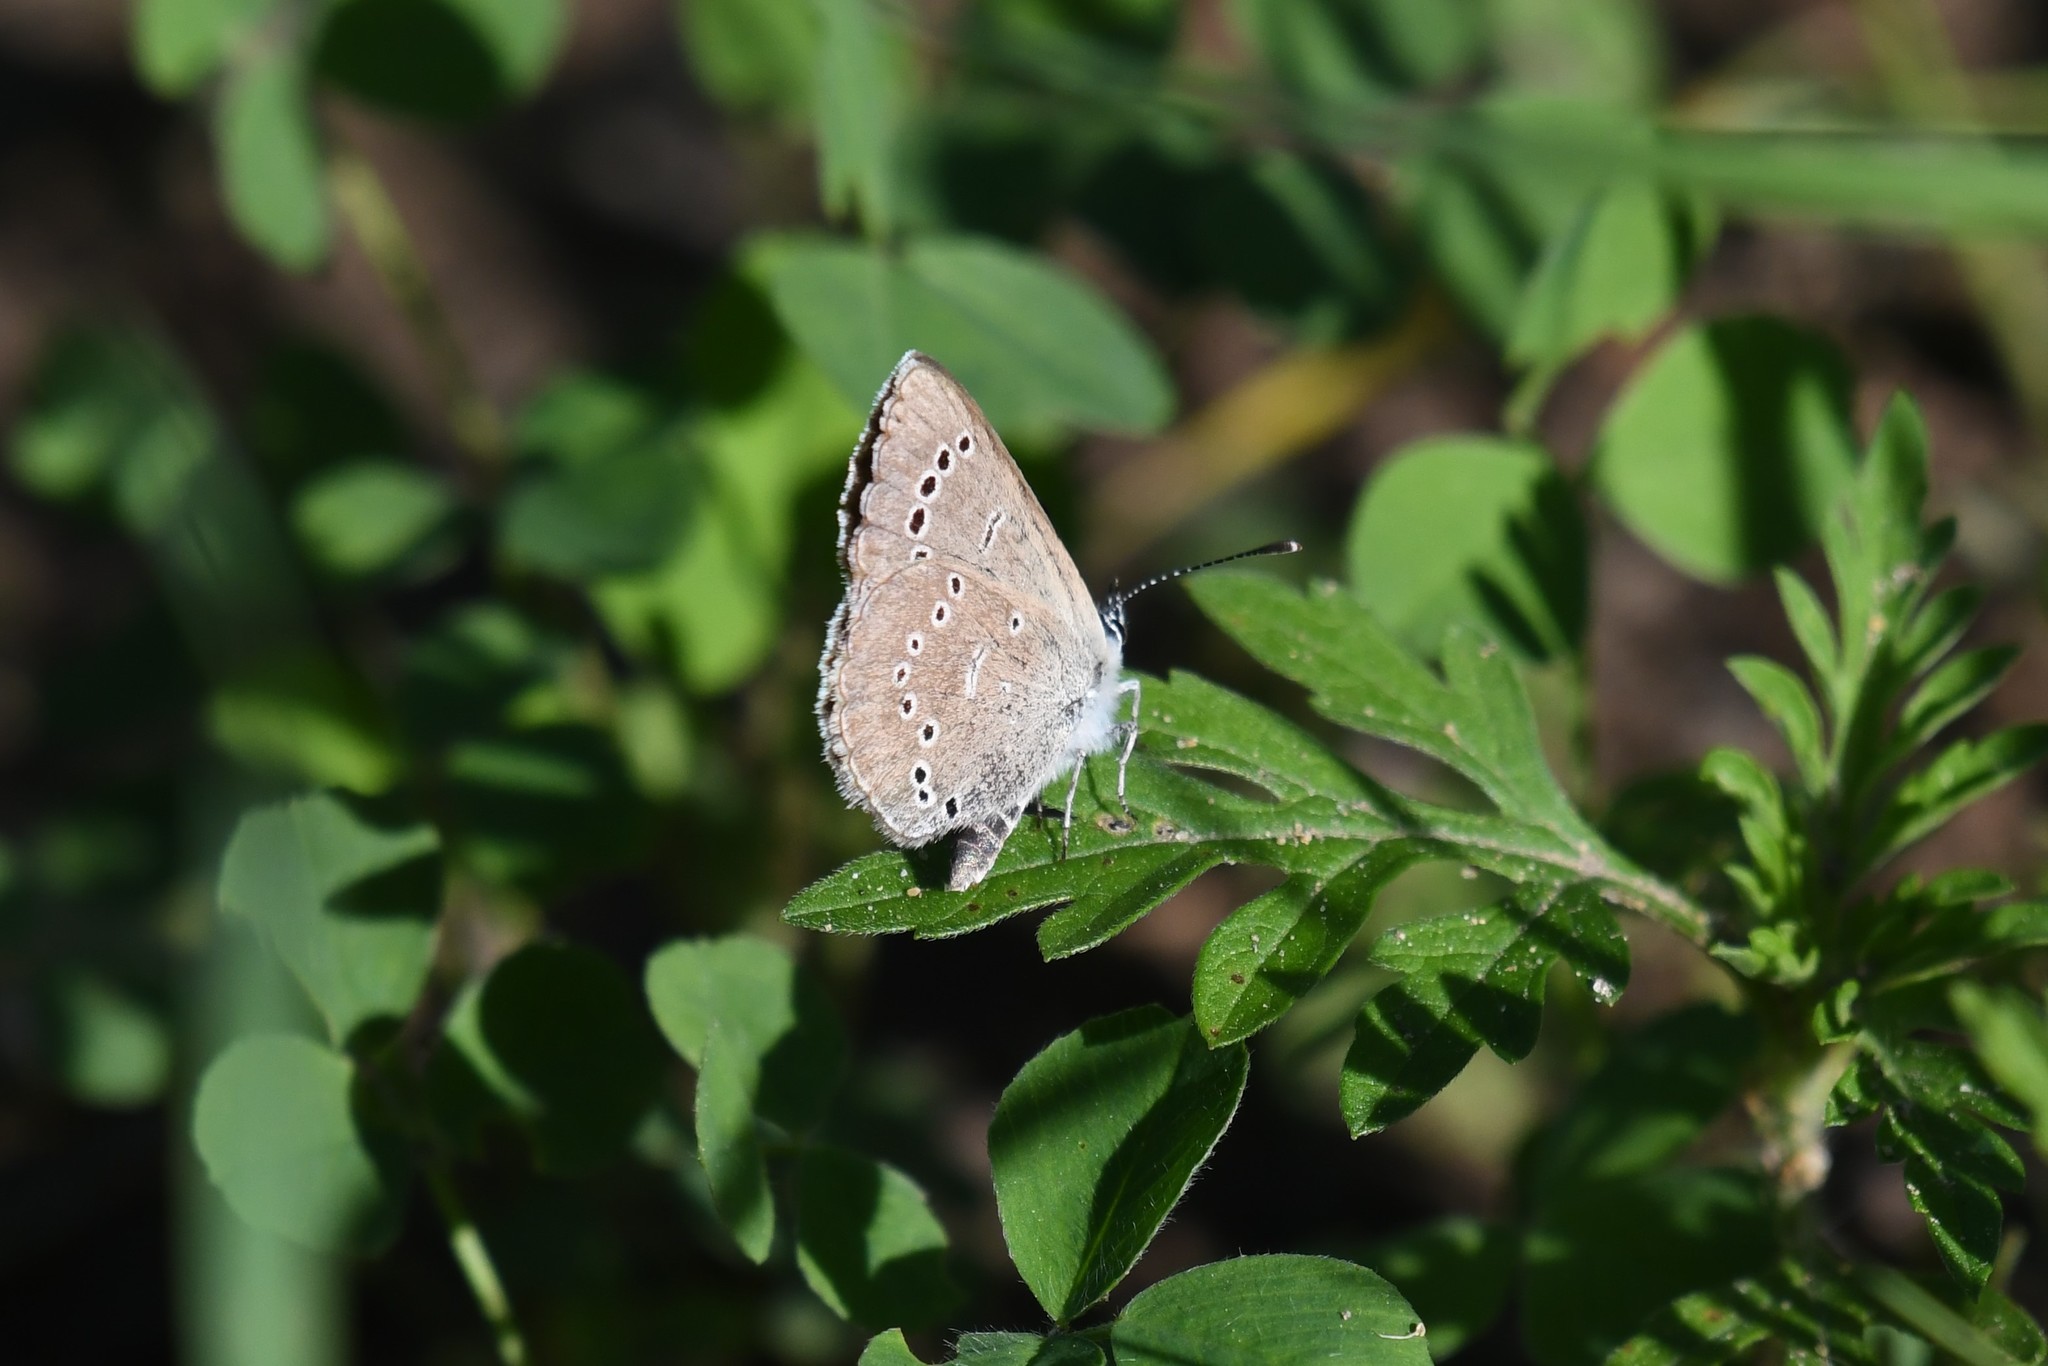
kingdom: Animalia
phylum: Arthropoda
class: Insecta
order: Lepidoptera
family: Lycaenidae
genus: Glaucopsyche
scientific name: Glaucopsyche lygdamus
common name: Silvery blue
